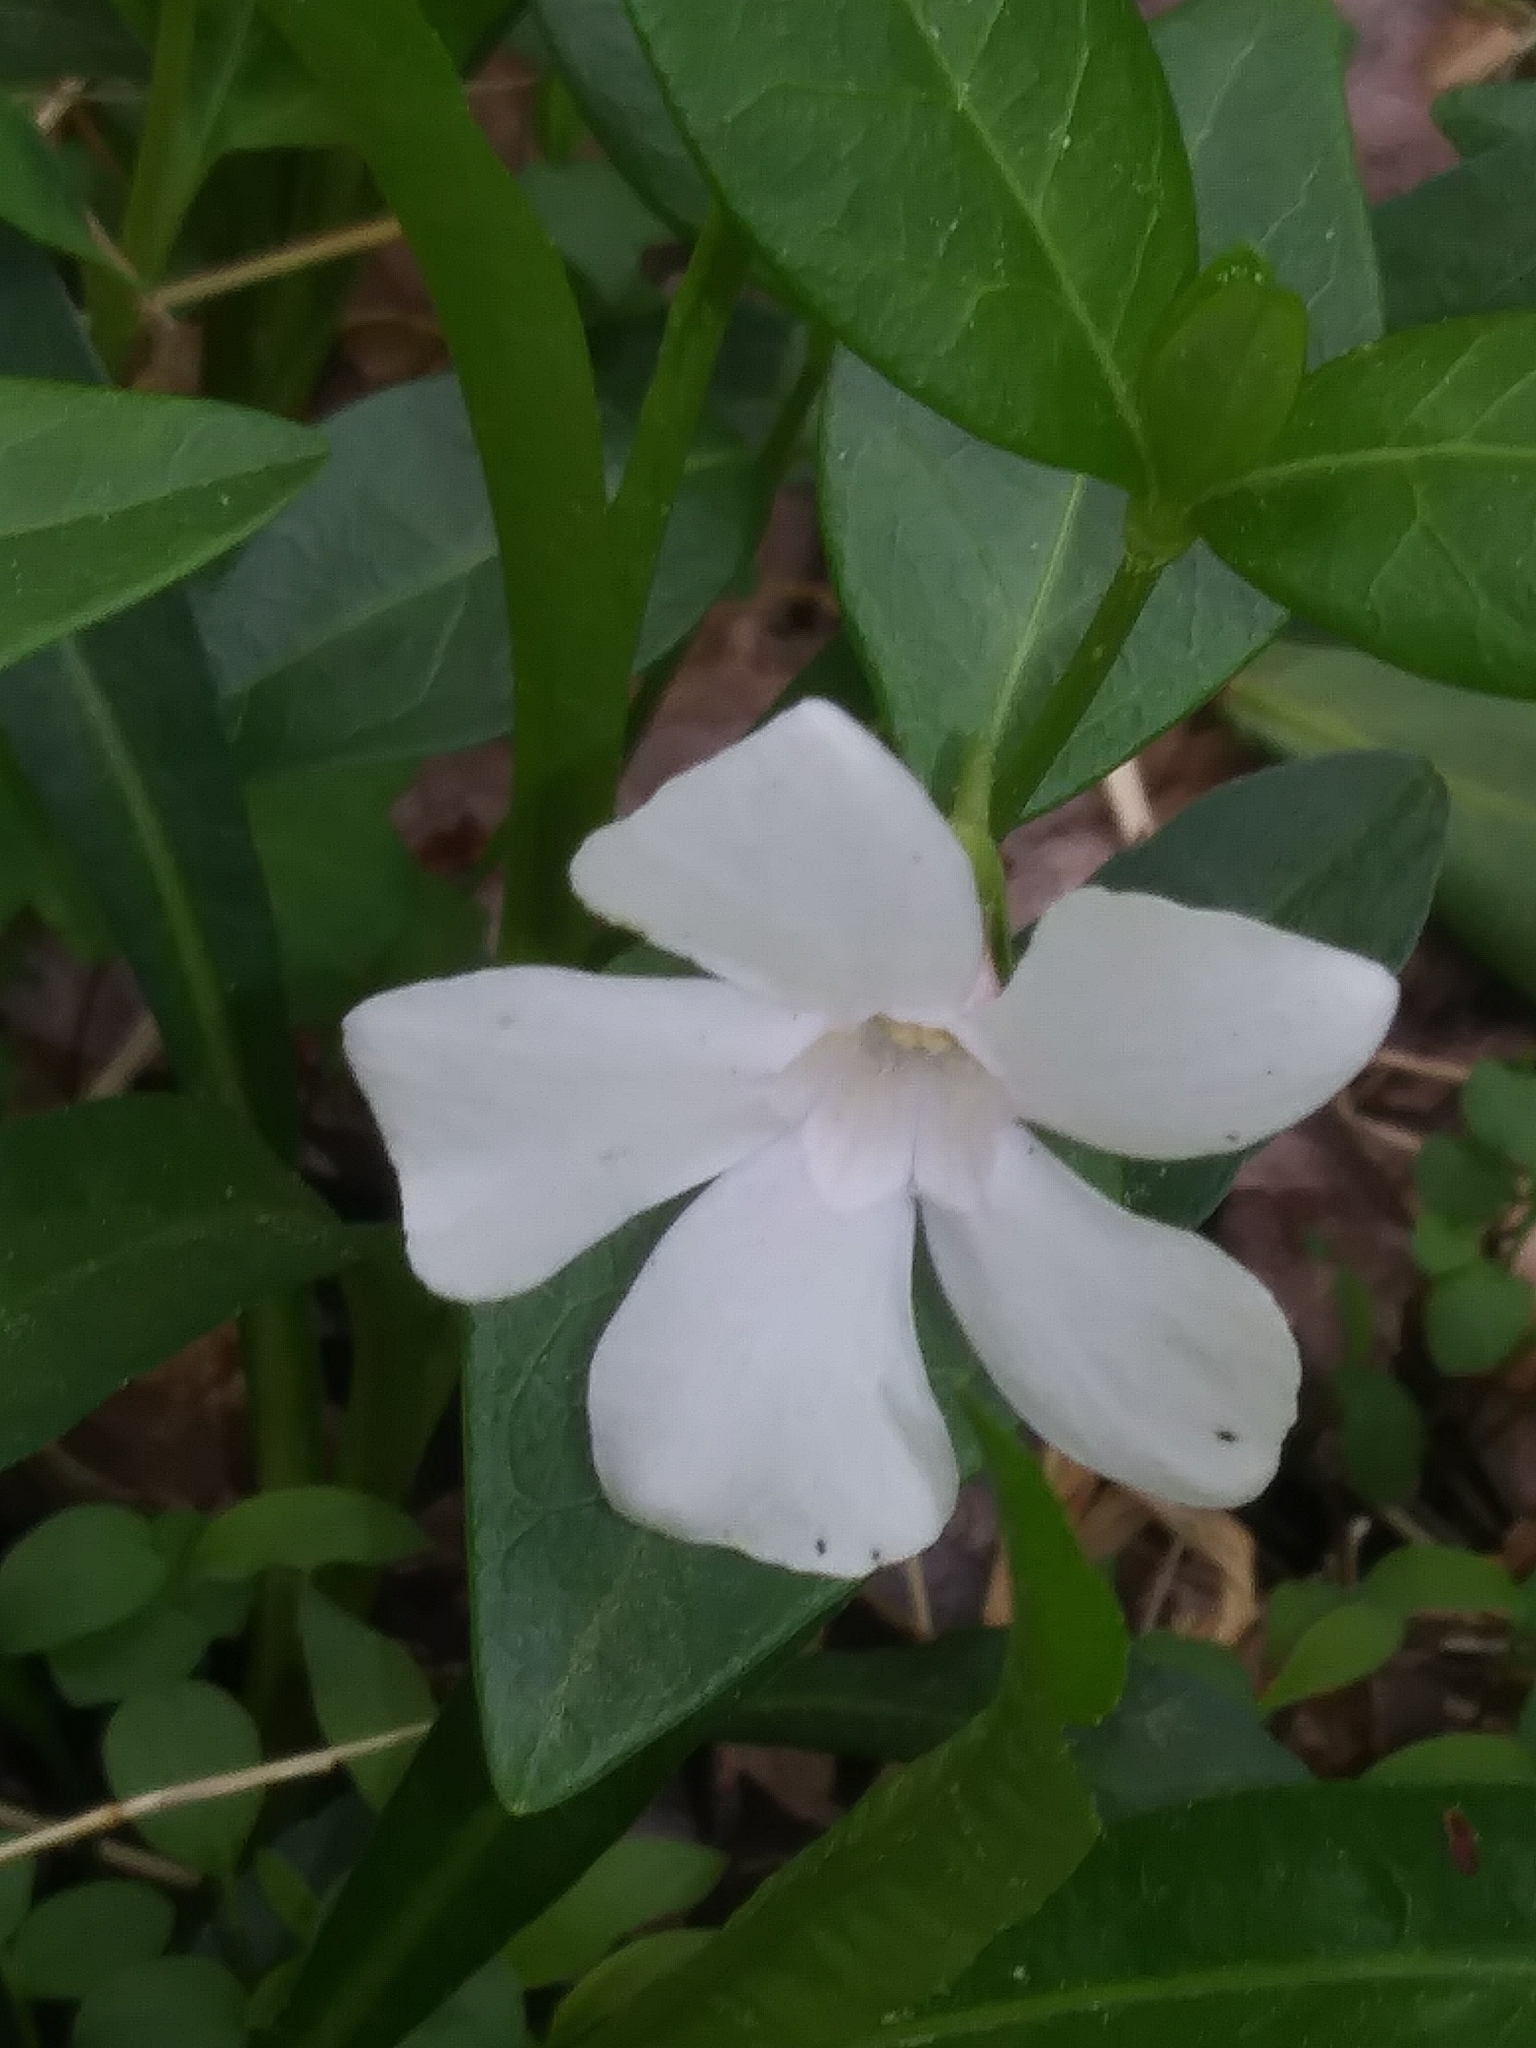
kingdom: Plantae
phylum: Tracheophyta
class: Magnoliopsida
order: Gentianales
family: Apocynaceae
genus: Vinca
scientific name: Vinca minor
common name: Lesser periwinkle
